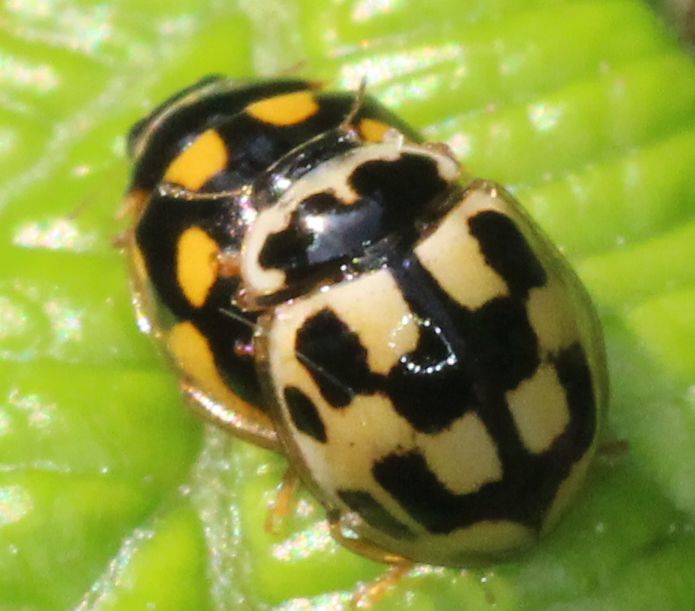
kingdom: Animalia
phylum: Arthropoda
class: Insecta
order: Coleoptera
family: Coccinellidae
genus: Propylaea
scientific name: Propylaea quatuordecimpunctata
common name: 14-spotted ladybird beetle
